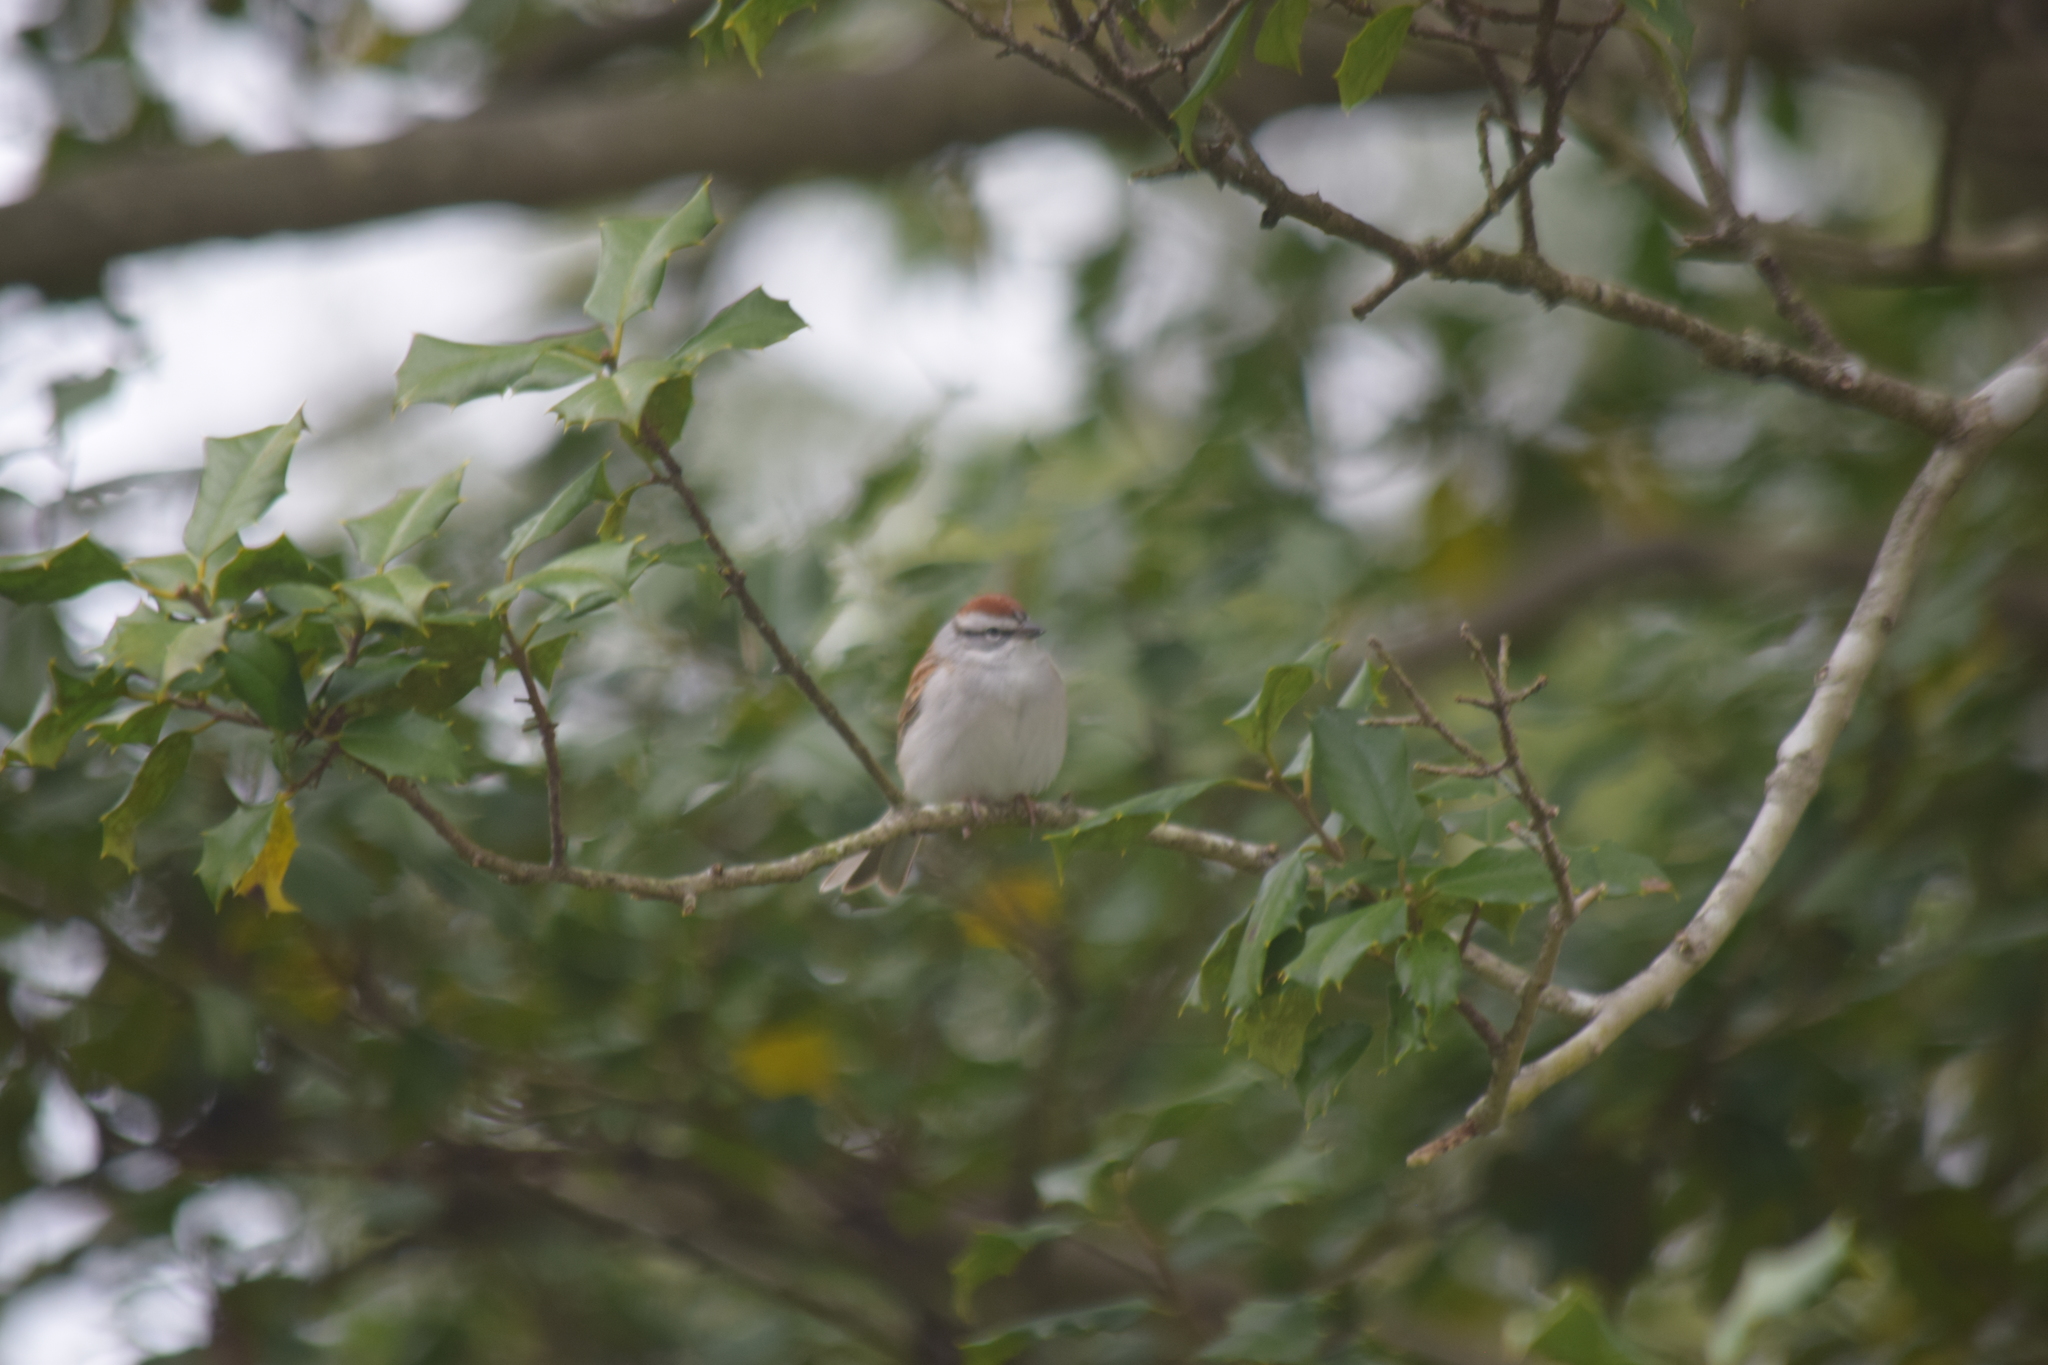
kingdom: Animalia
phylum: Chordata
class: Aves
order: Passeriformes
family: Passerellidae
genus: Spizella
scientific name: Spizella passerina
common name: Chipping sparrow
